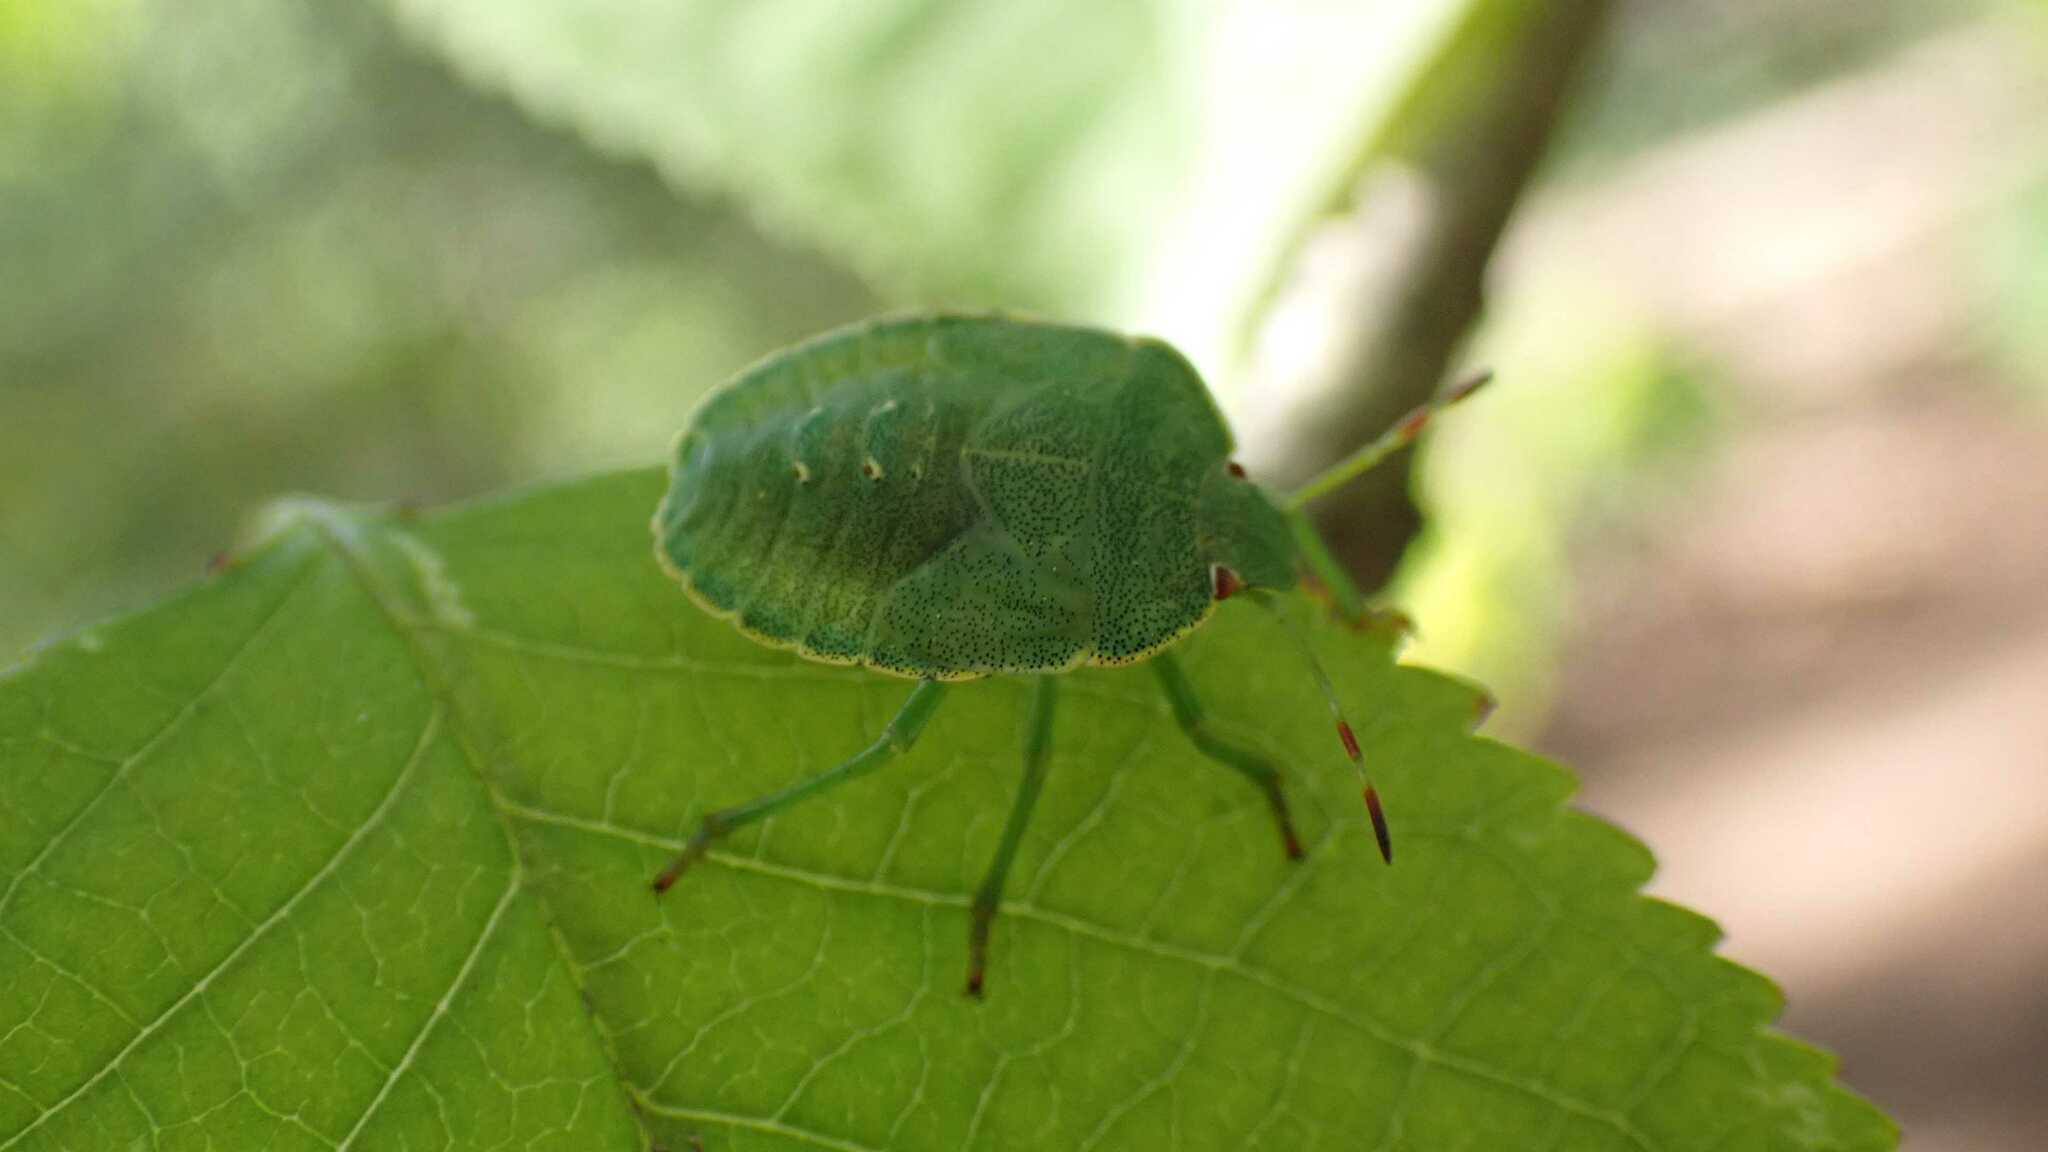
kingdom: Animalia
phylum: Arthropoda
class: Insecta
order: Hemiptera
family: Pentatomidae
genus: Palomena
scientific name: Palomena prasina
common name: Green shieldbug
